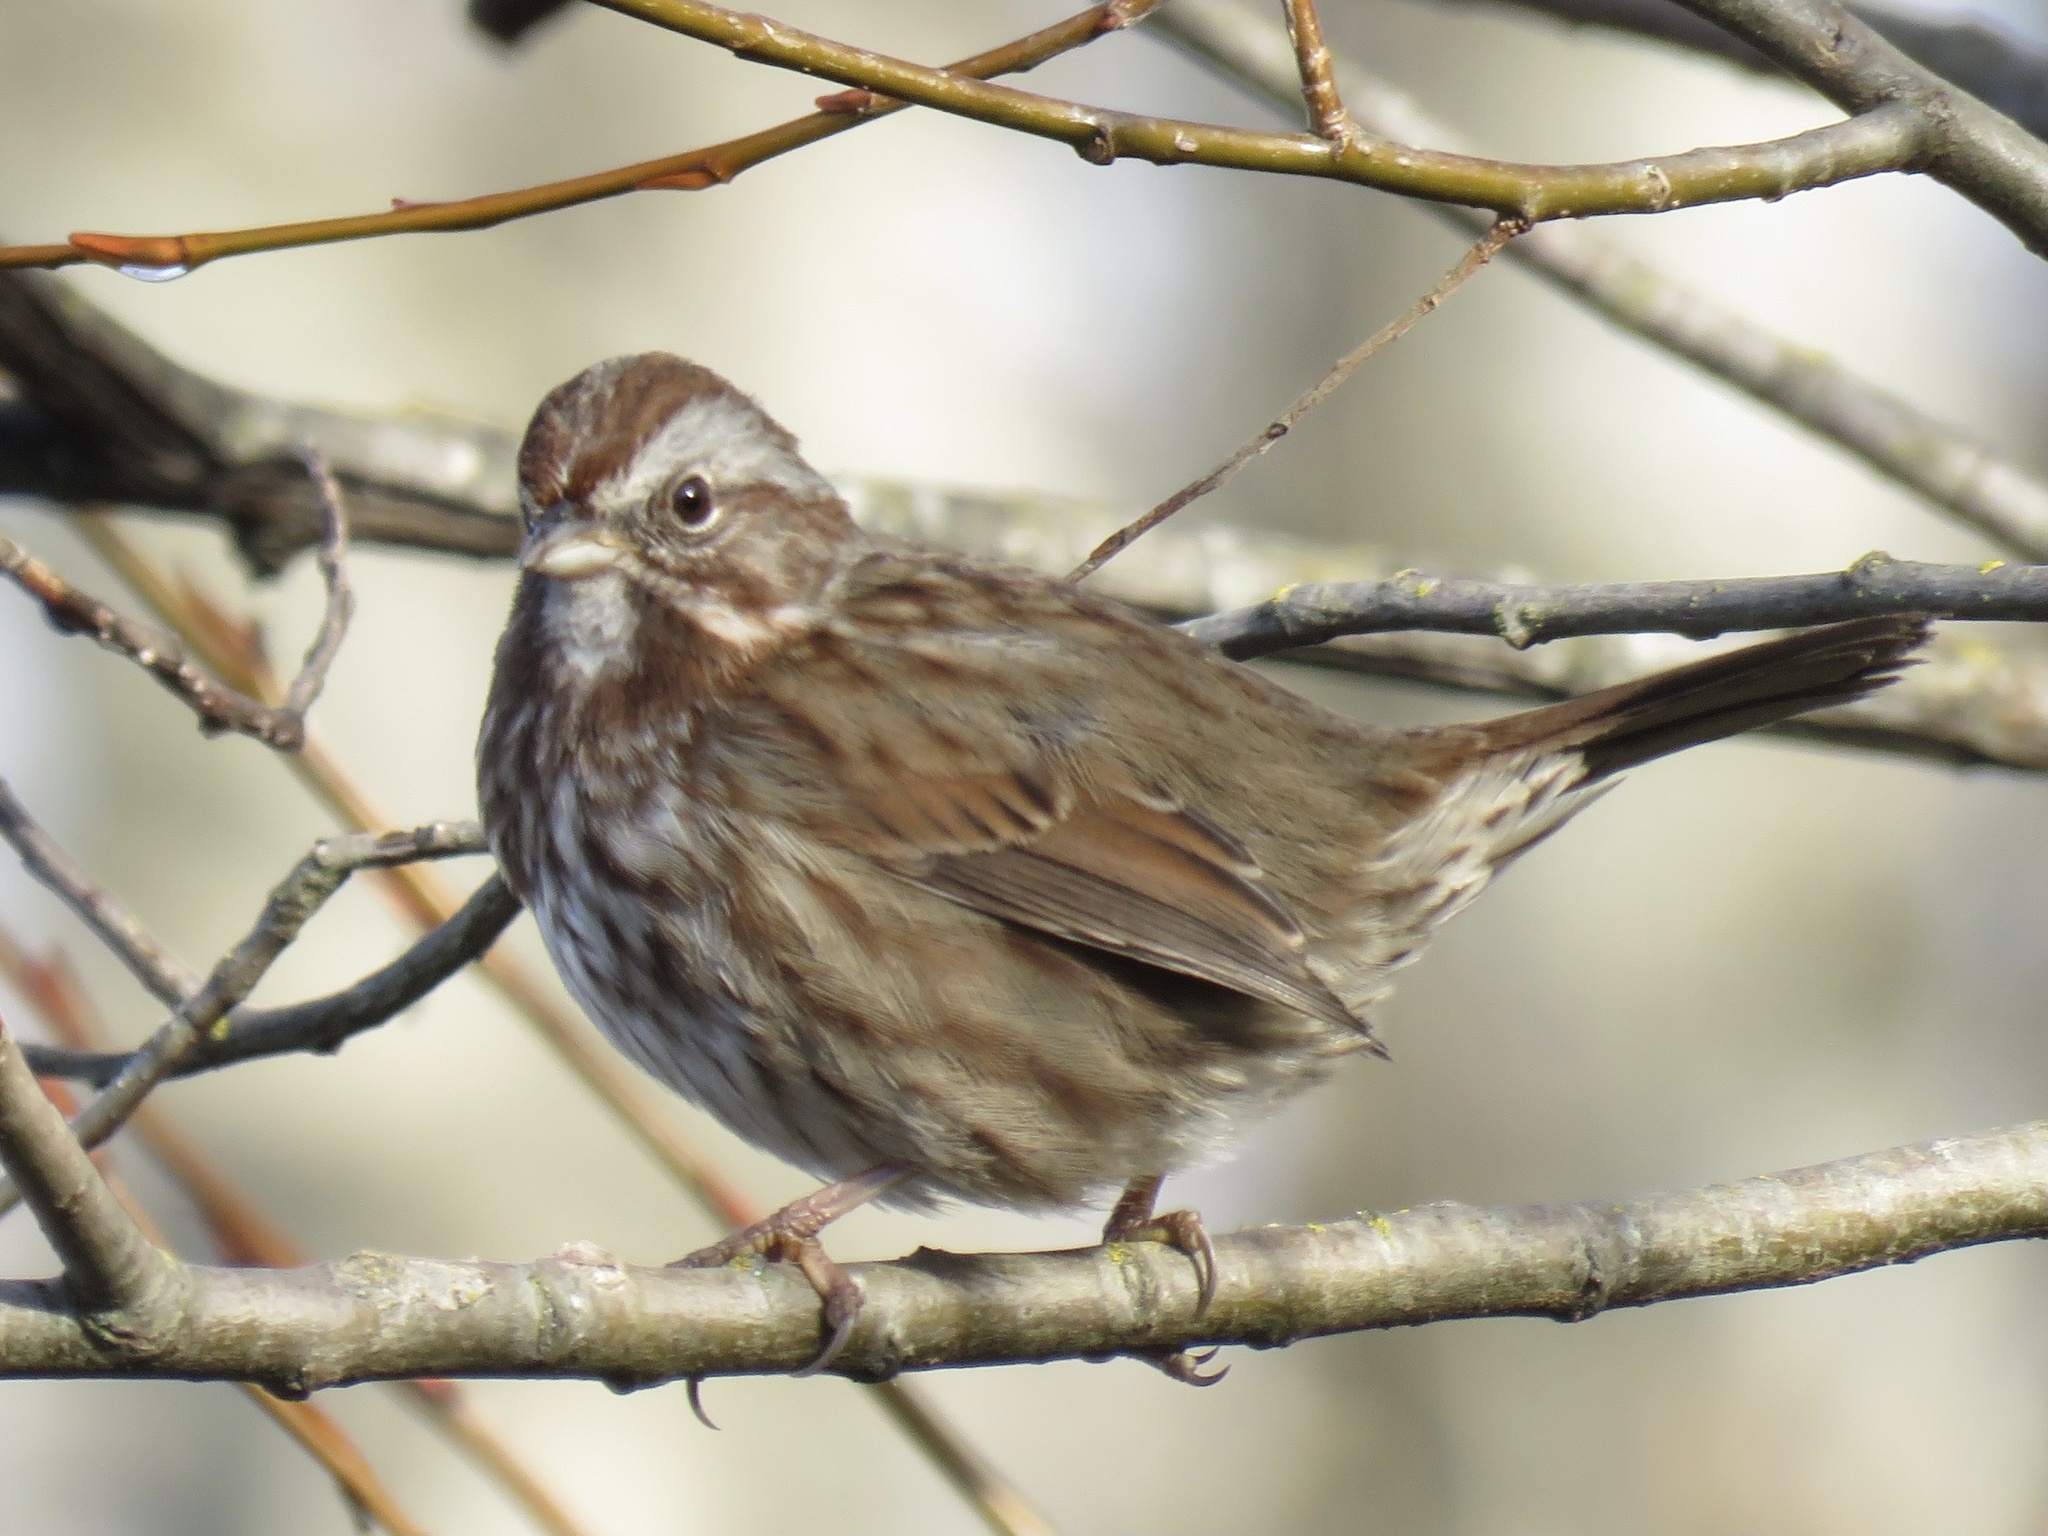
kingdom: Animalia
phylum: Chordata
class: Aves
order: Passeriformes
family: Passerellidae
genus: Melospiza
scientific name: Melospiza melodia
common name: Song sparrow
